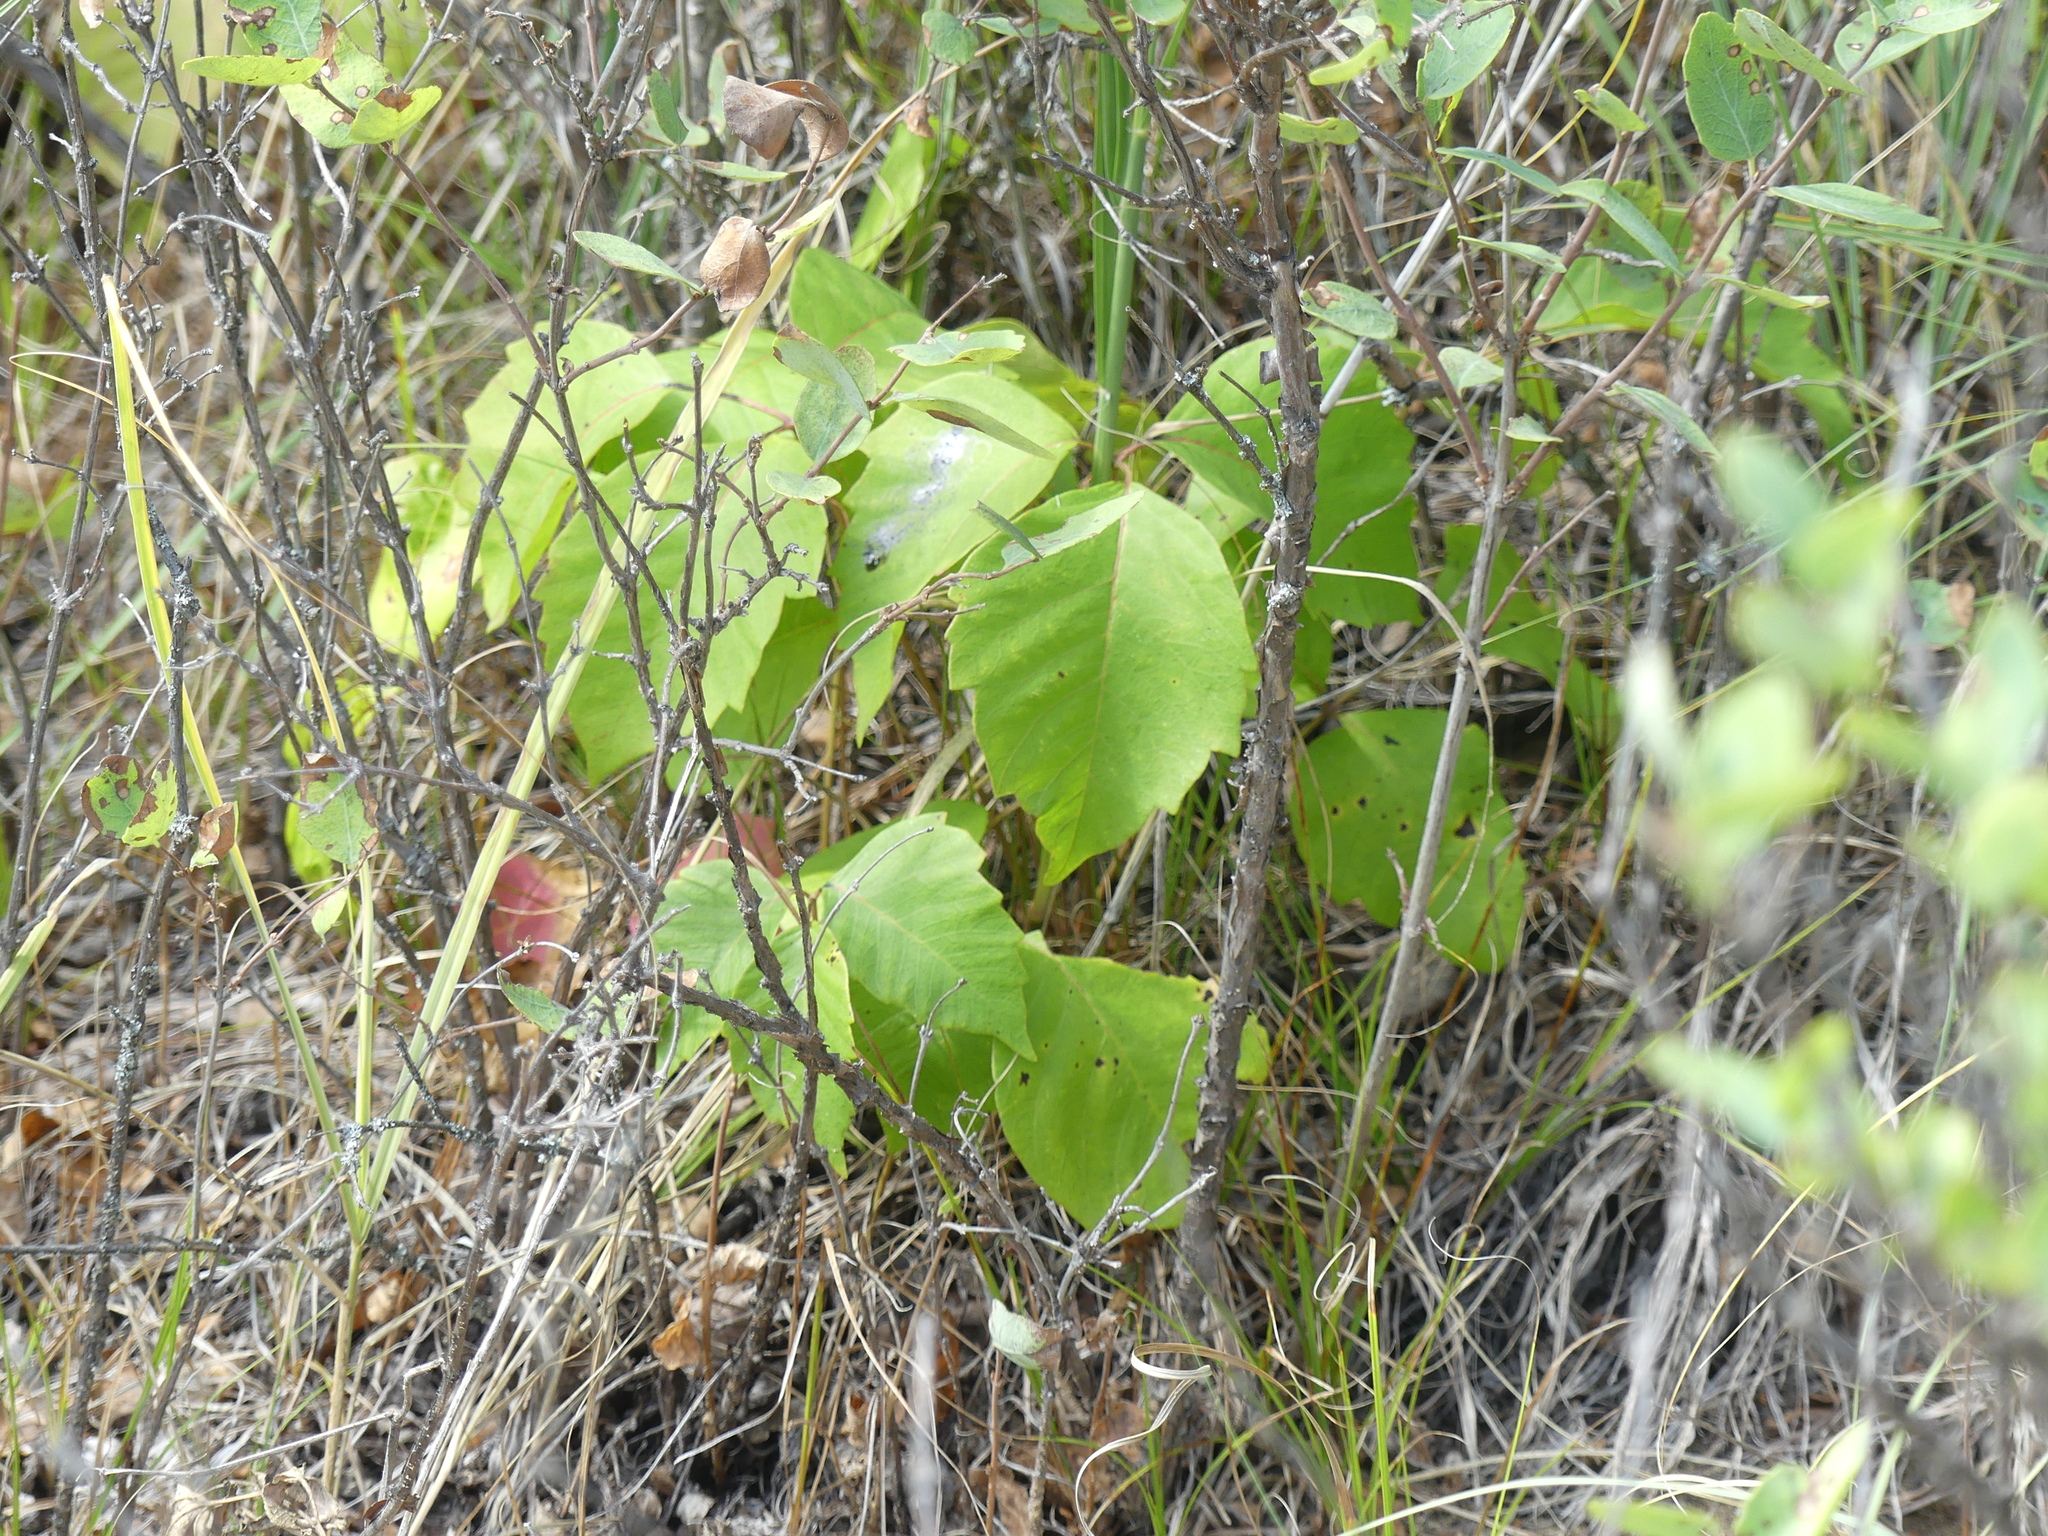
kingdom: Plantae
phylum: Tracheophyta
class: Magnoliopsida
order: Sapindales
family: Anacardiaceae
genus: Toxicodendron
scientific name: Toxicodendron rydbergii
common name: Rydberg's poison-ivy
